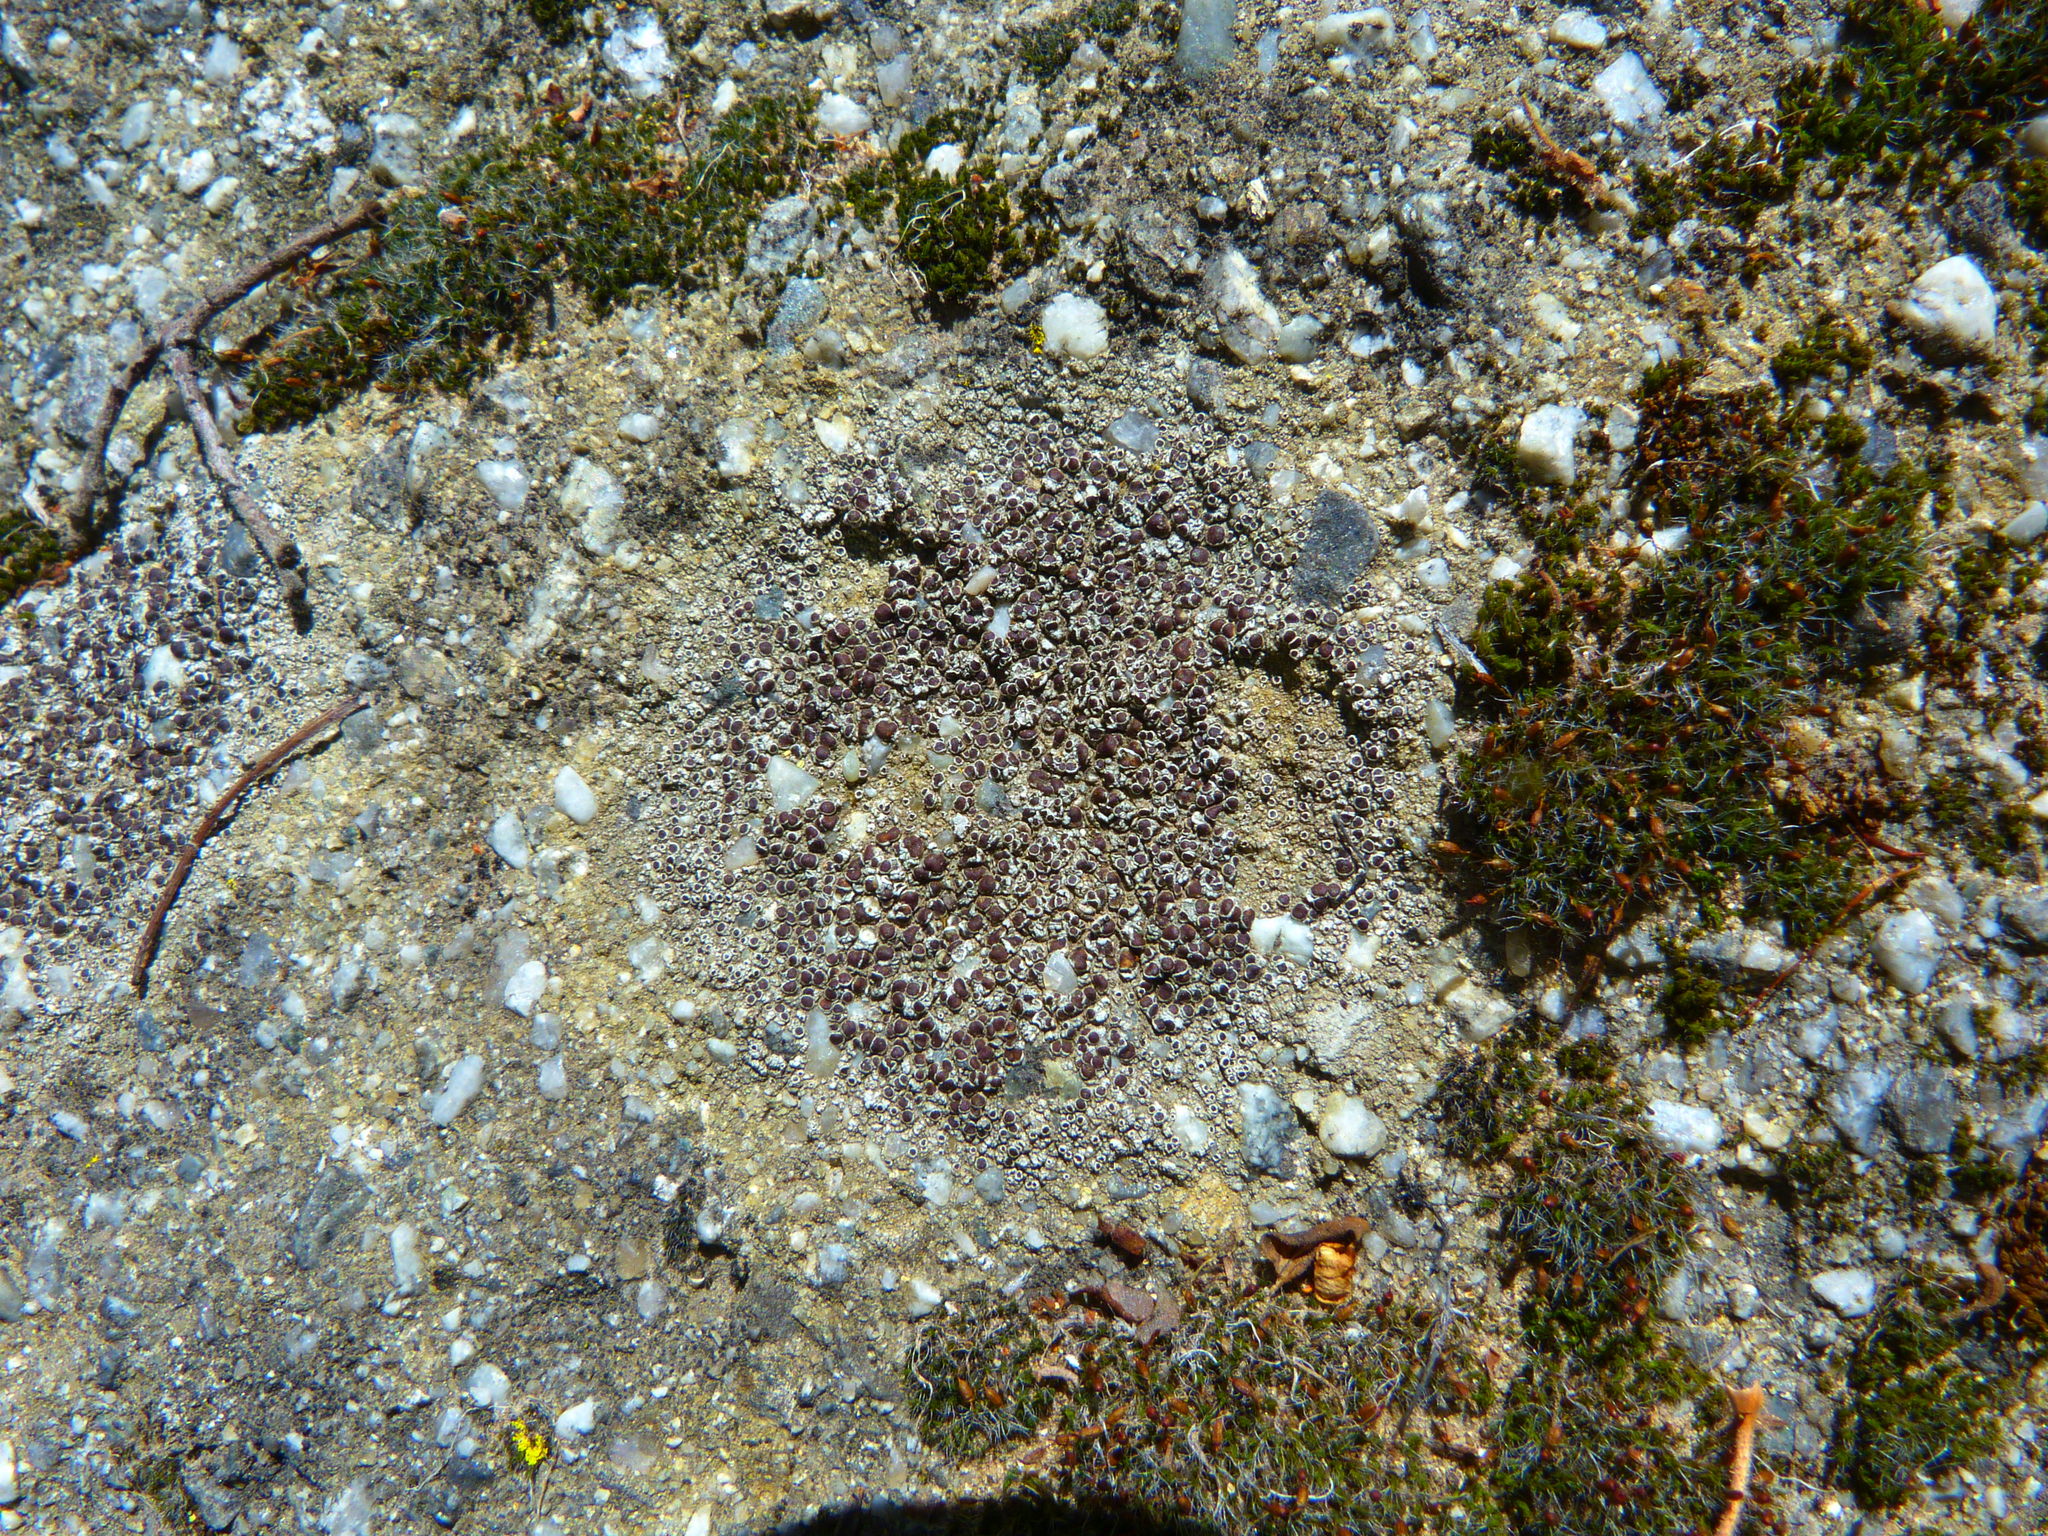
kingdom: Fungi
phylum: Ascomycota
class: Lecanoromycetes
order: Lecanorales
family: Lecanoraceae
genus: Lecanora
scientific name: Lecanora campestris
